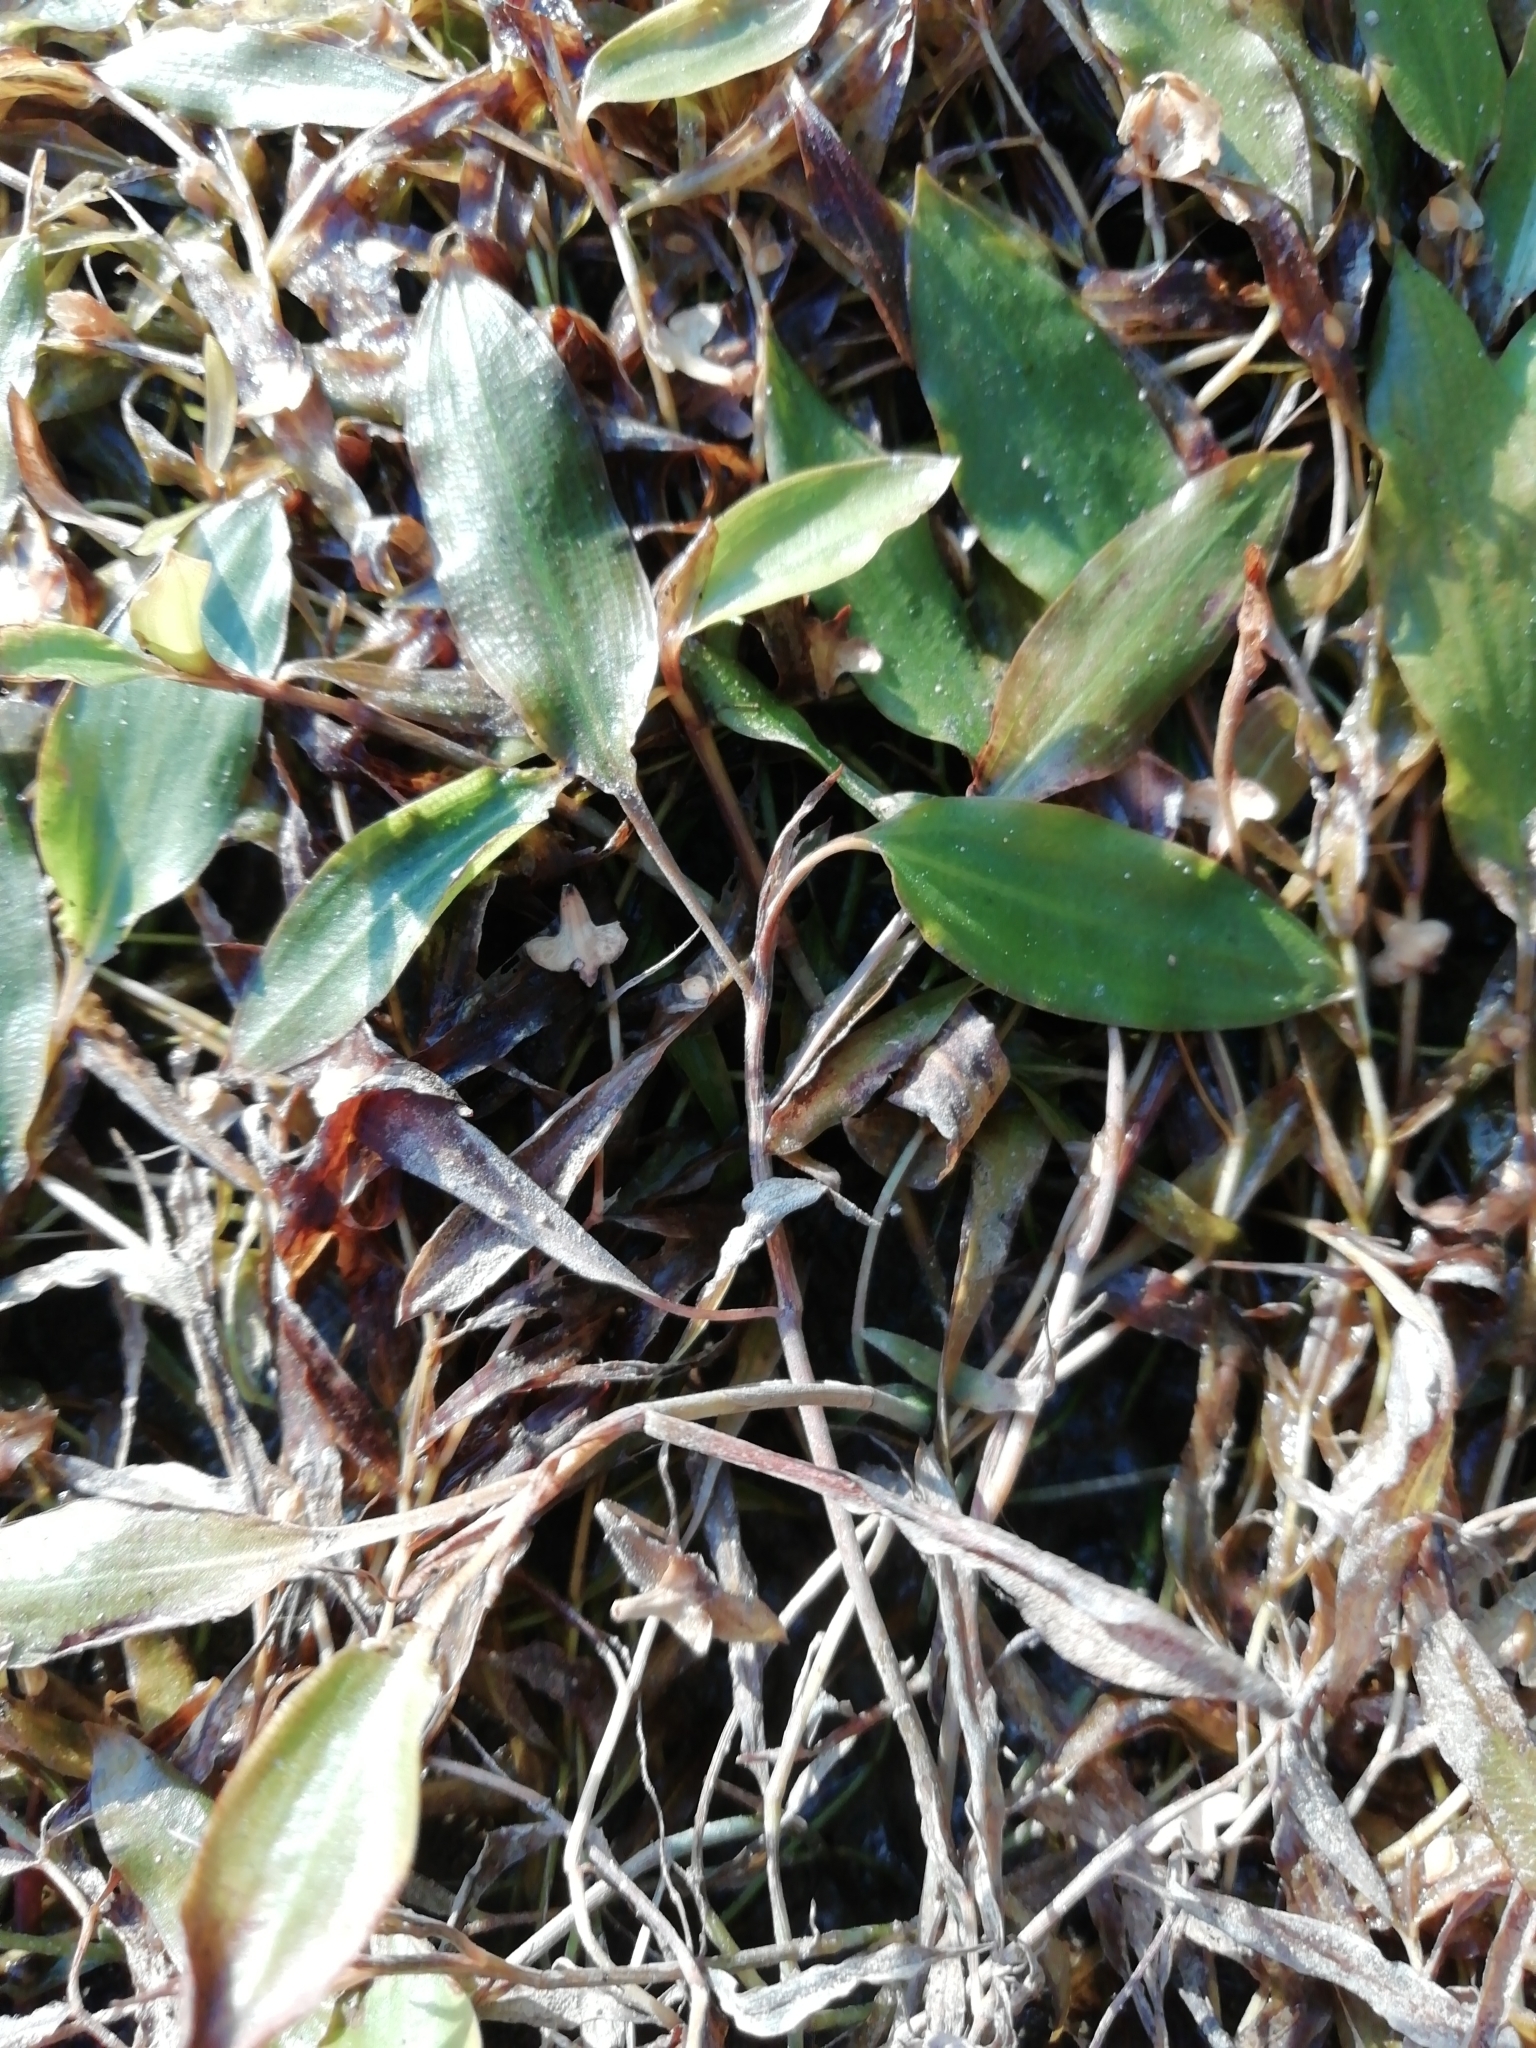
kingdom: Plantae
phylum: Tracheophyta
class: Liliopsida
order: Alismatales
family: Potamogetonaceae
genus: Potamogeton
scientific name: Potamogeton gramineus
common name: Various-leaved pondweed
